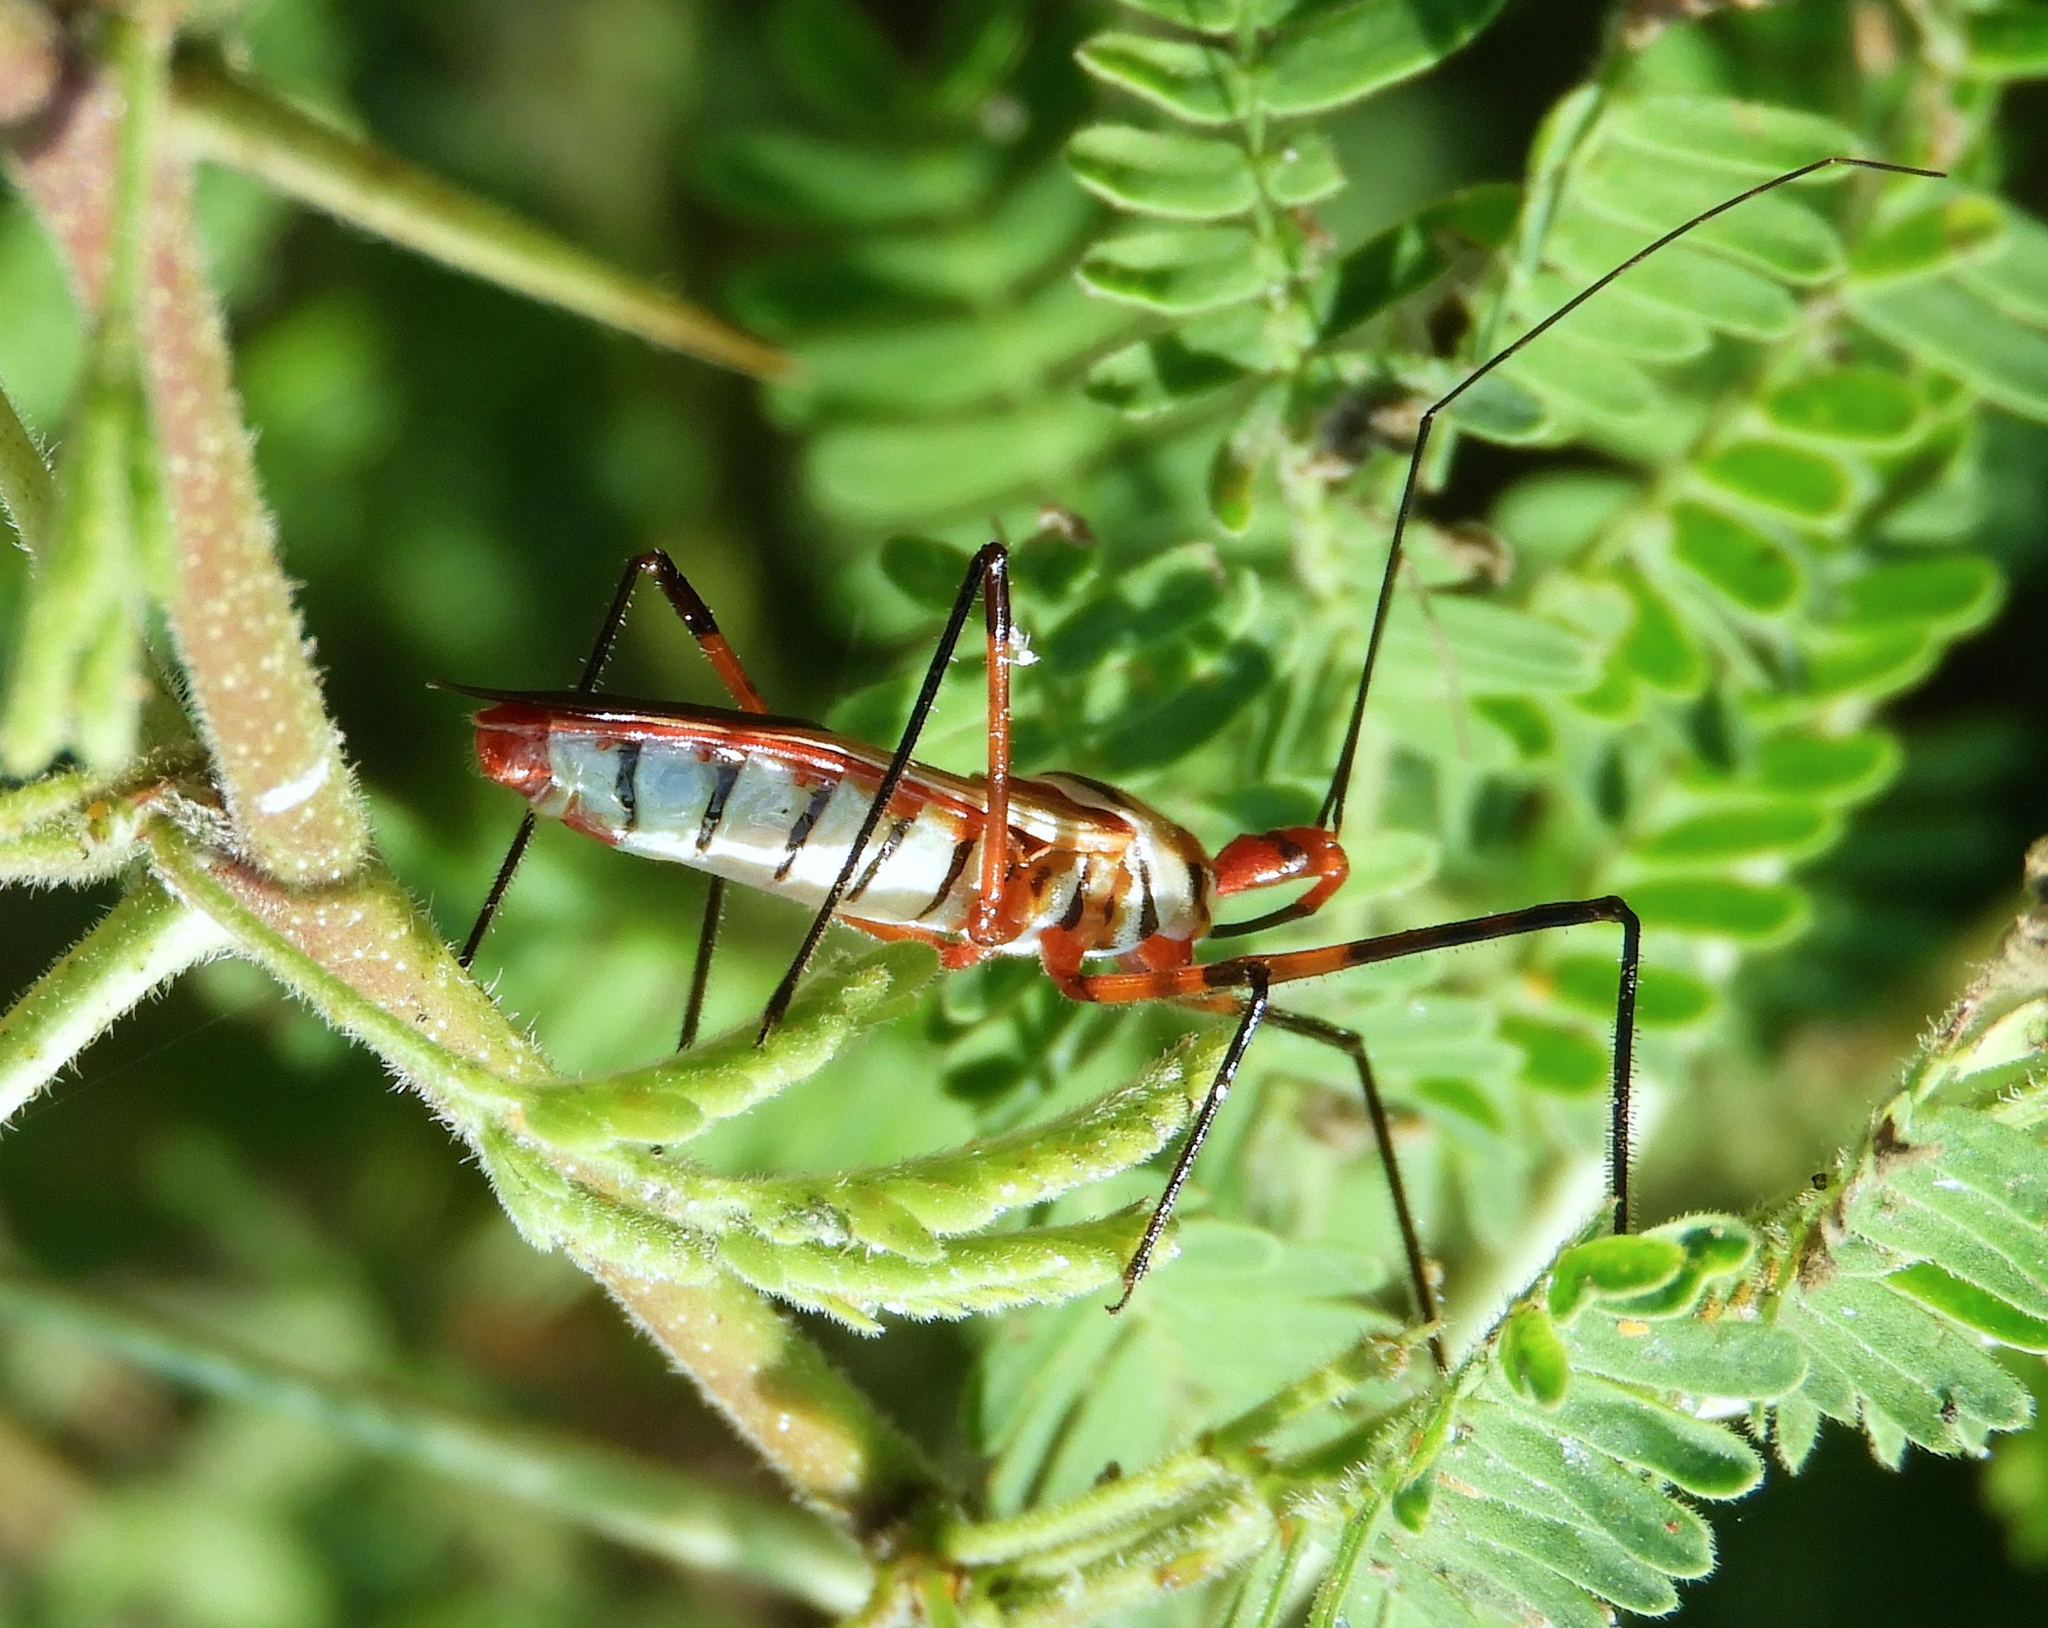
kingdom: Animalia
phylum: Arthropoda
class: Insecta
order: Hemiptera
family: Reduviidae
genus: Zelus
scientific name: Zelus grassans
